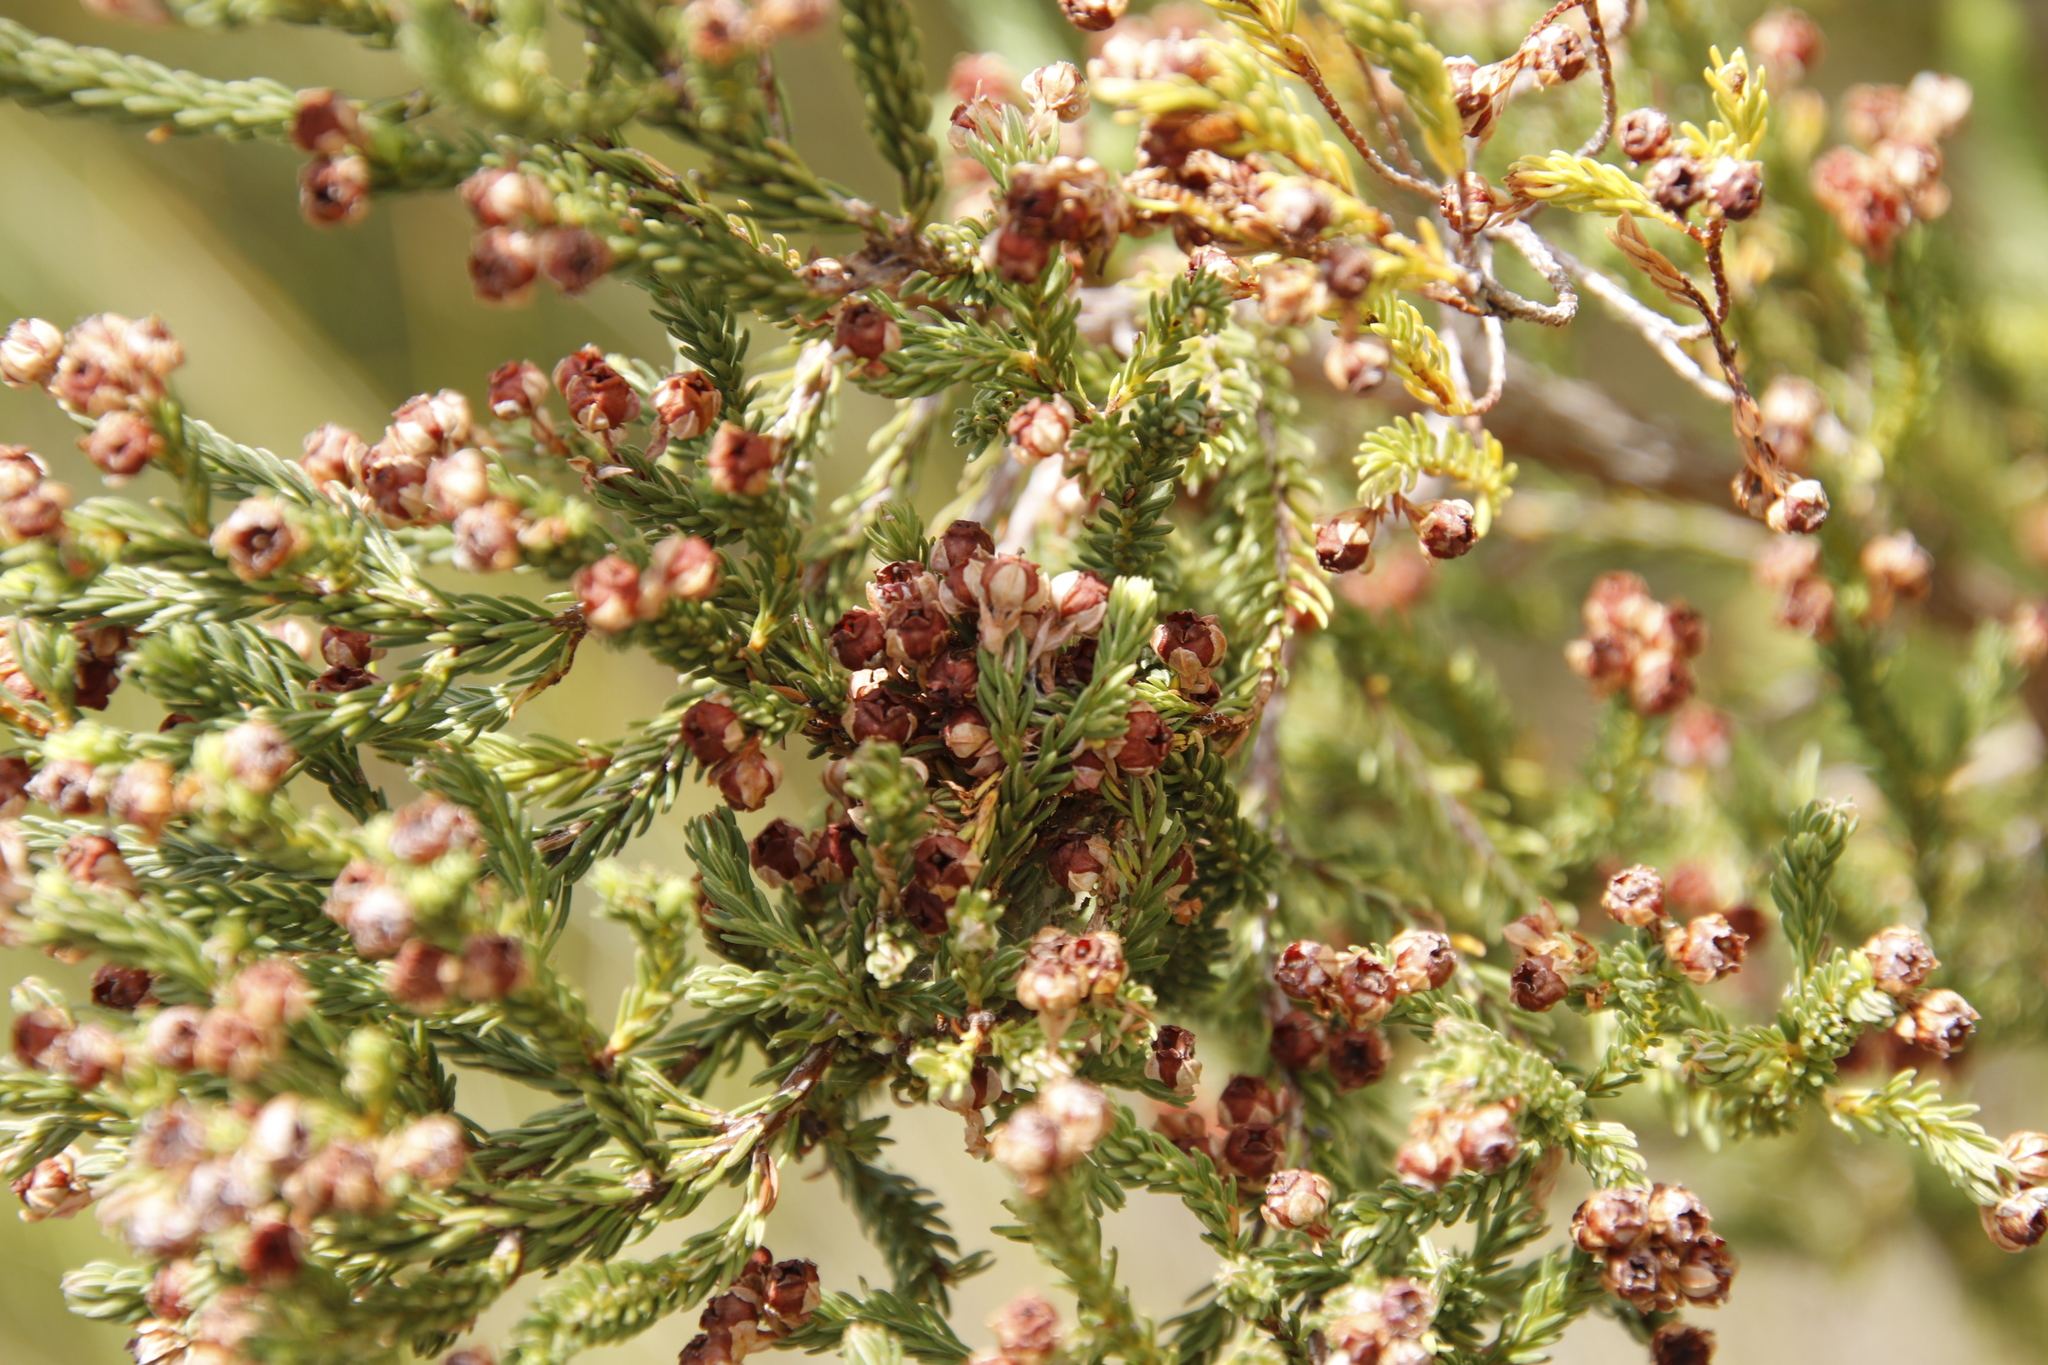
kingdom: Plantae
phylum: Tracheophyta
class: Magnoliopsida
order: Ericales
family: Ericaceae
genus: Erica
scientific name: Erica baccans
